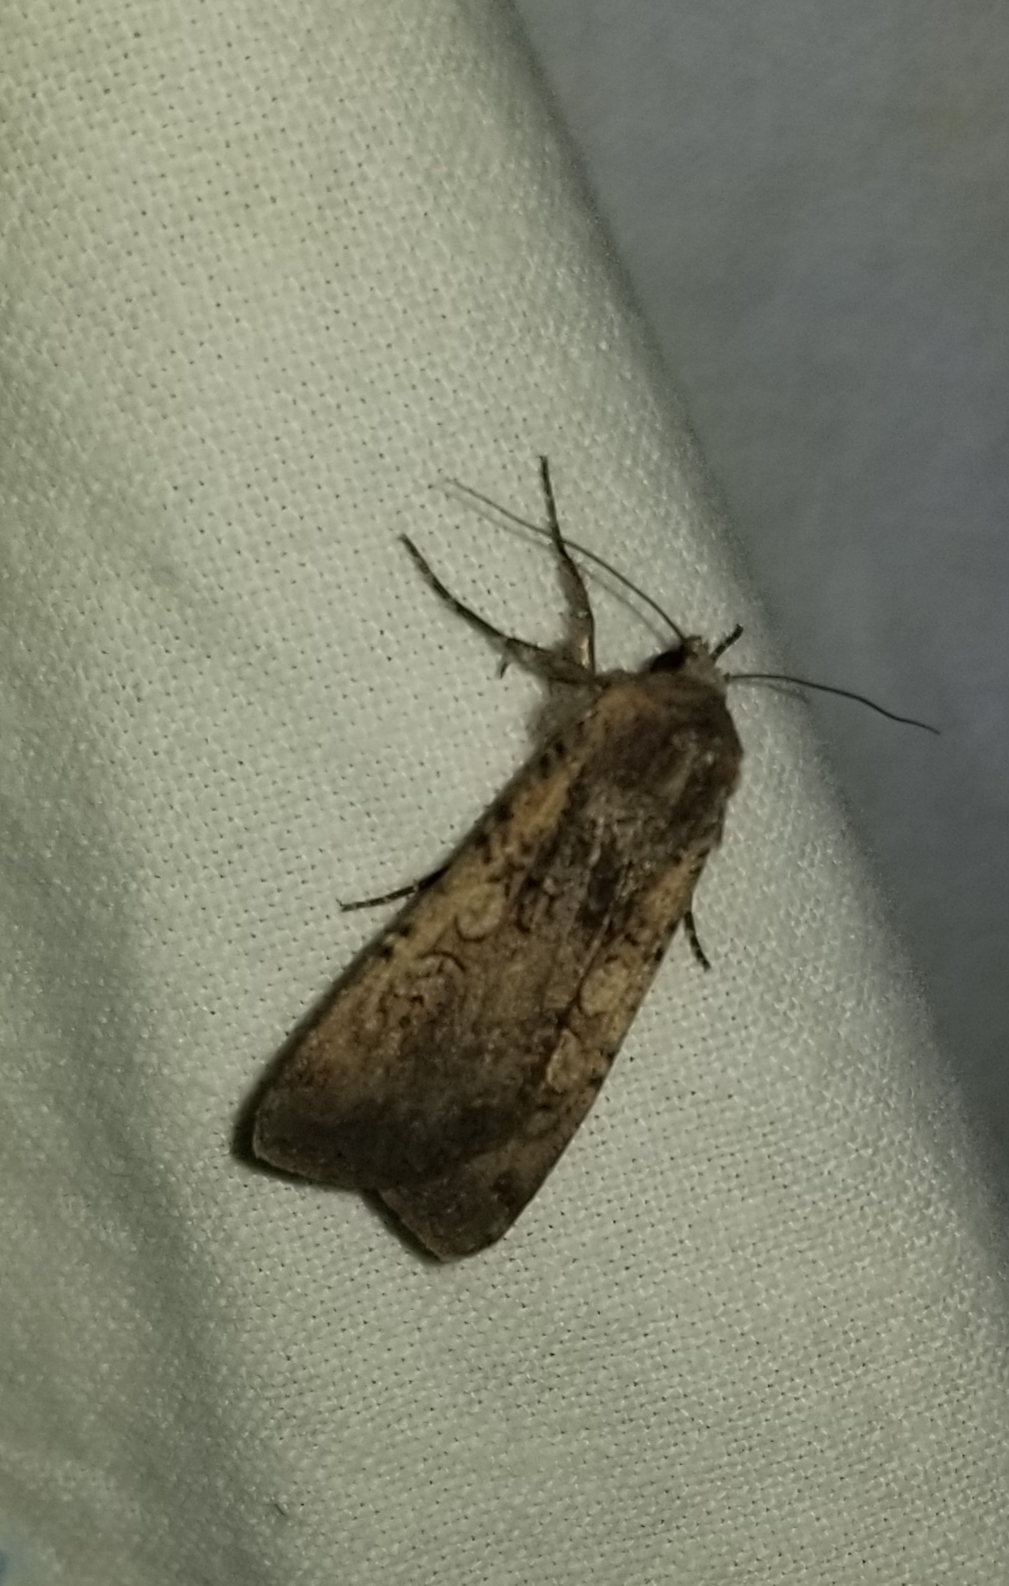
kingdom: Animalia
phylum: Arthropoda
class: Insecta
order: Lepidoptera
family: Noctuidae
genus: Peridroma
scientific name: Peridroma saucia
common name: Pearly underwing
